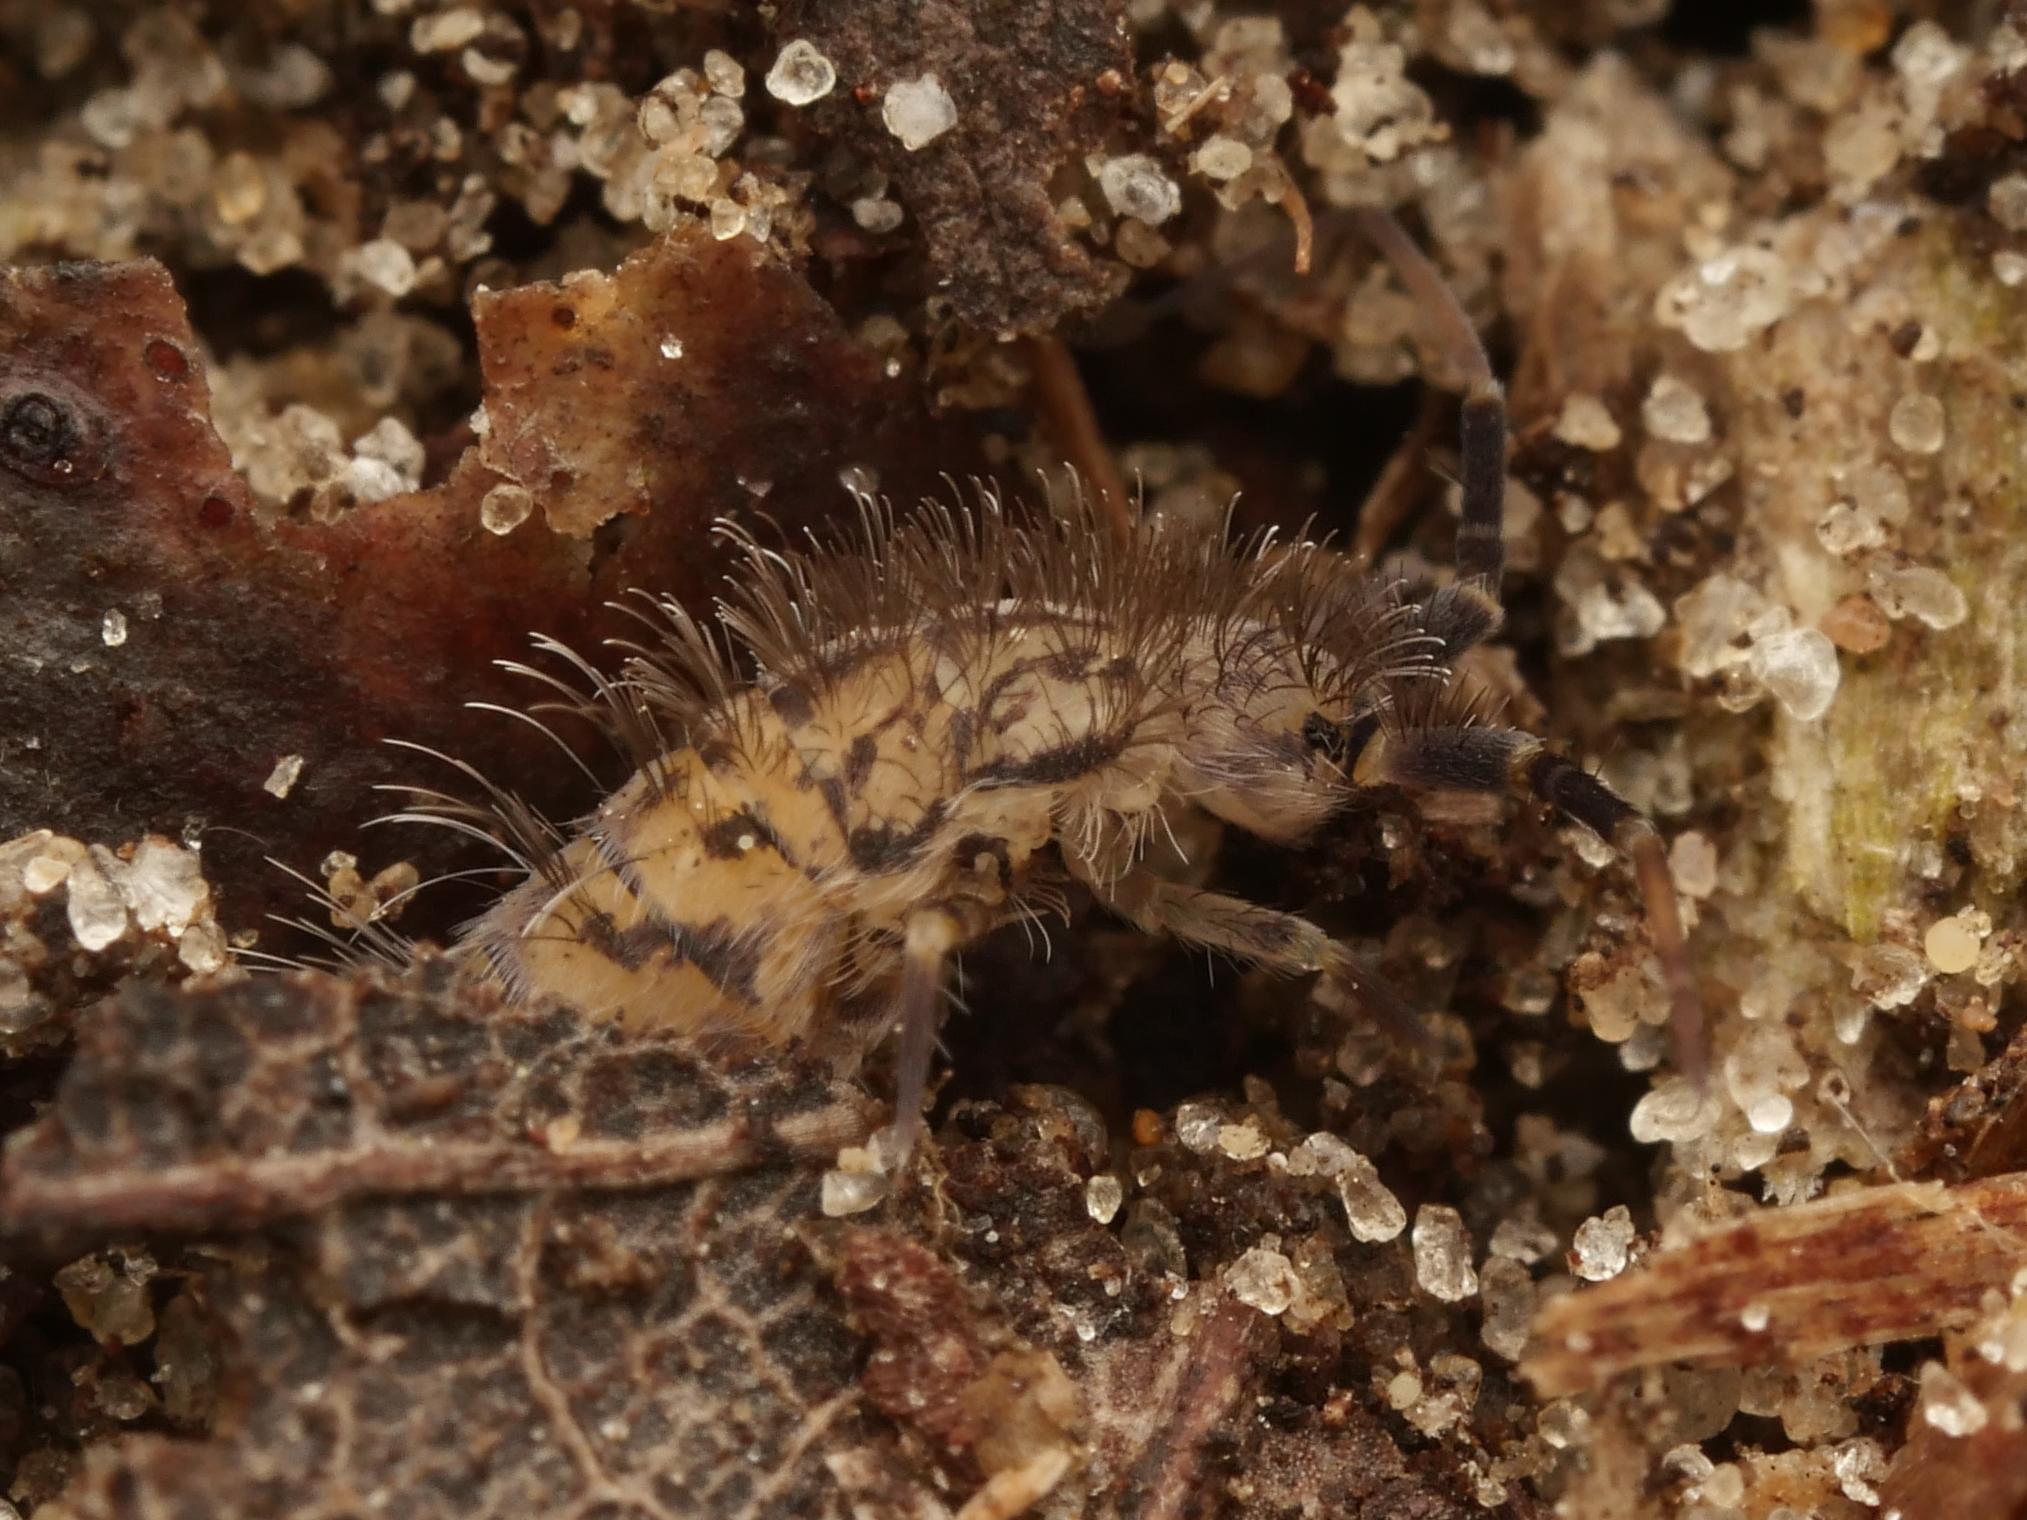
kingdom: Animalia
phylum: Arthropoda
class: Collembola
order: Entomobryomorpha
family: Orchesellidae
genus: Orchesella
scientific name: Orchesella villosa
